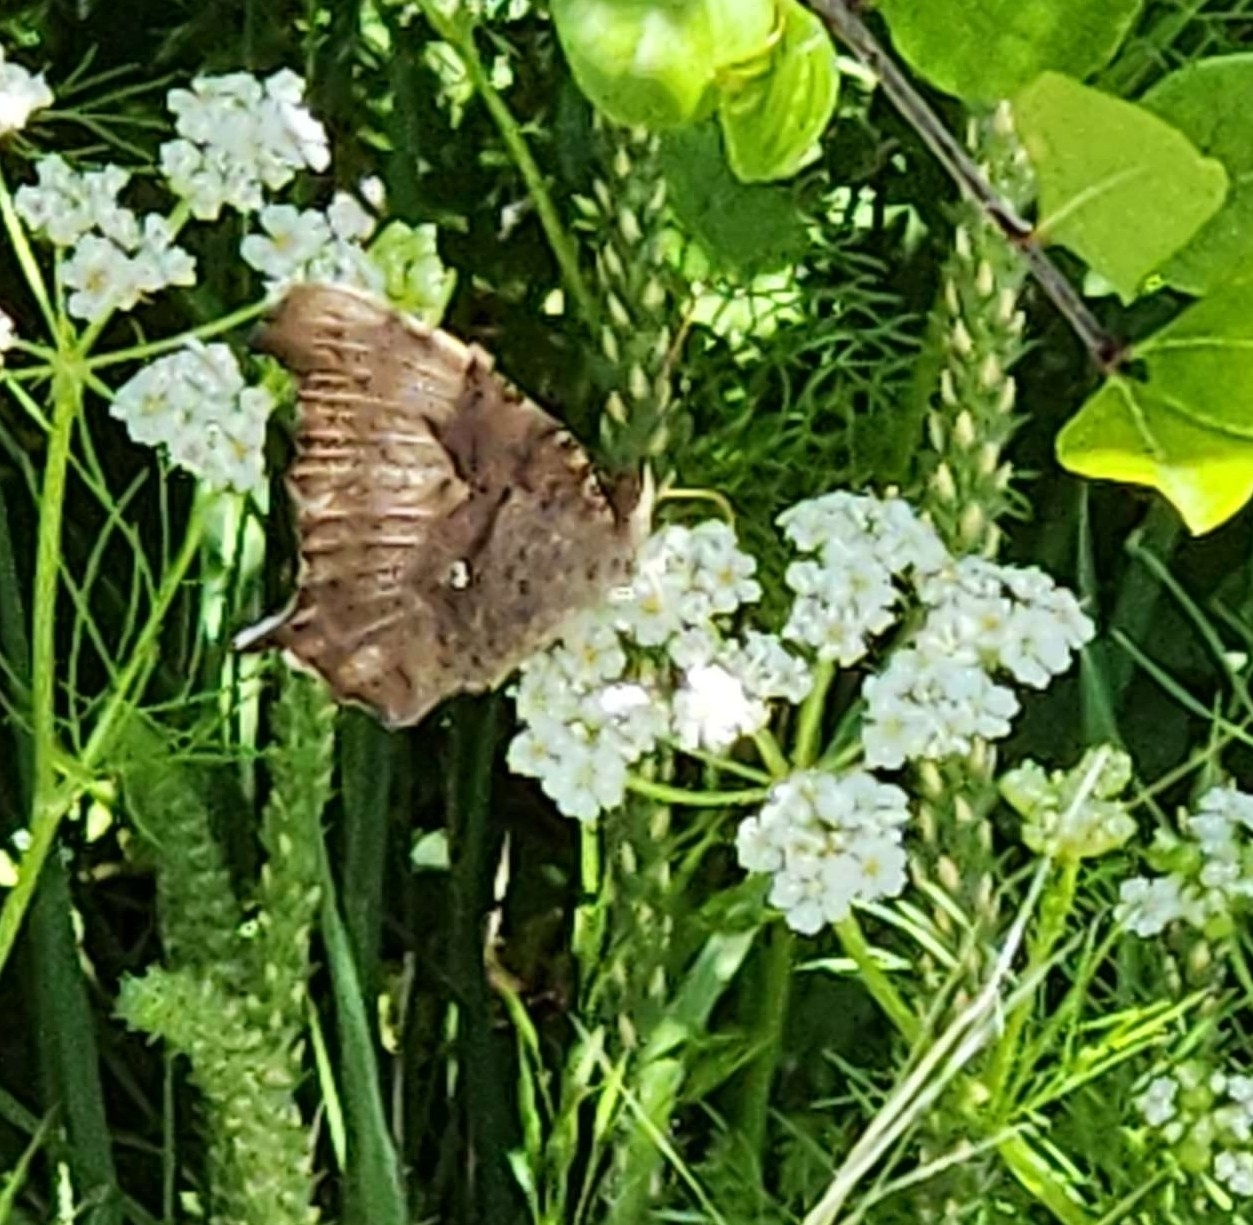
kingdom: Animalia
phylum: Arthropoda
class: Insecta
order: Lepidoptera
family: Nymphalidae
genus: Polygonia
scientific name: Polygonia interrogationis
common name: Question mark
